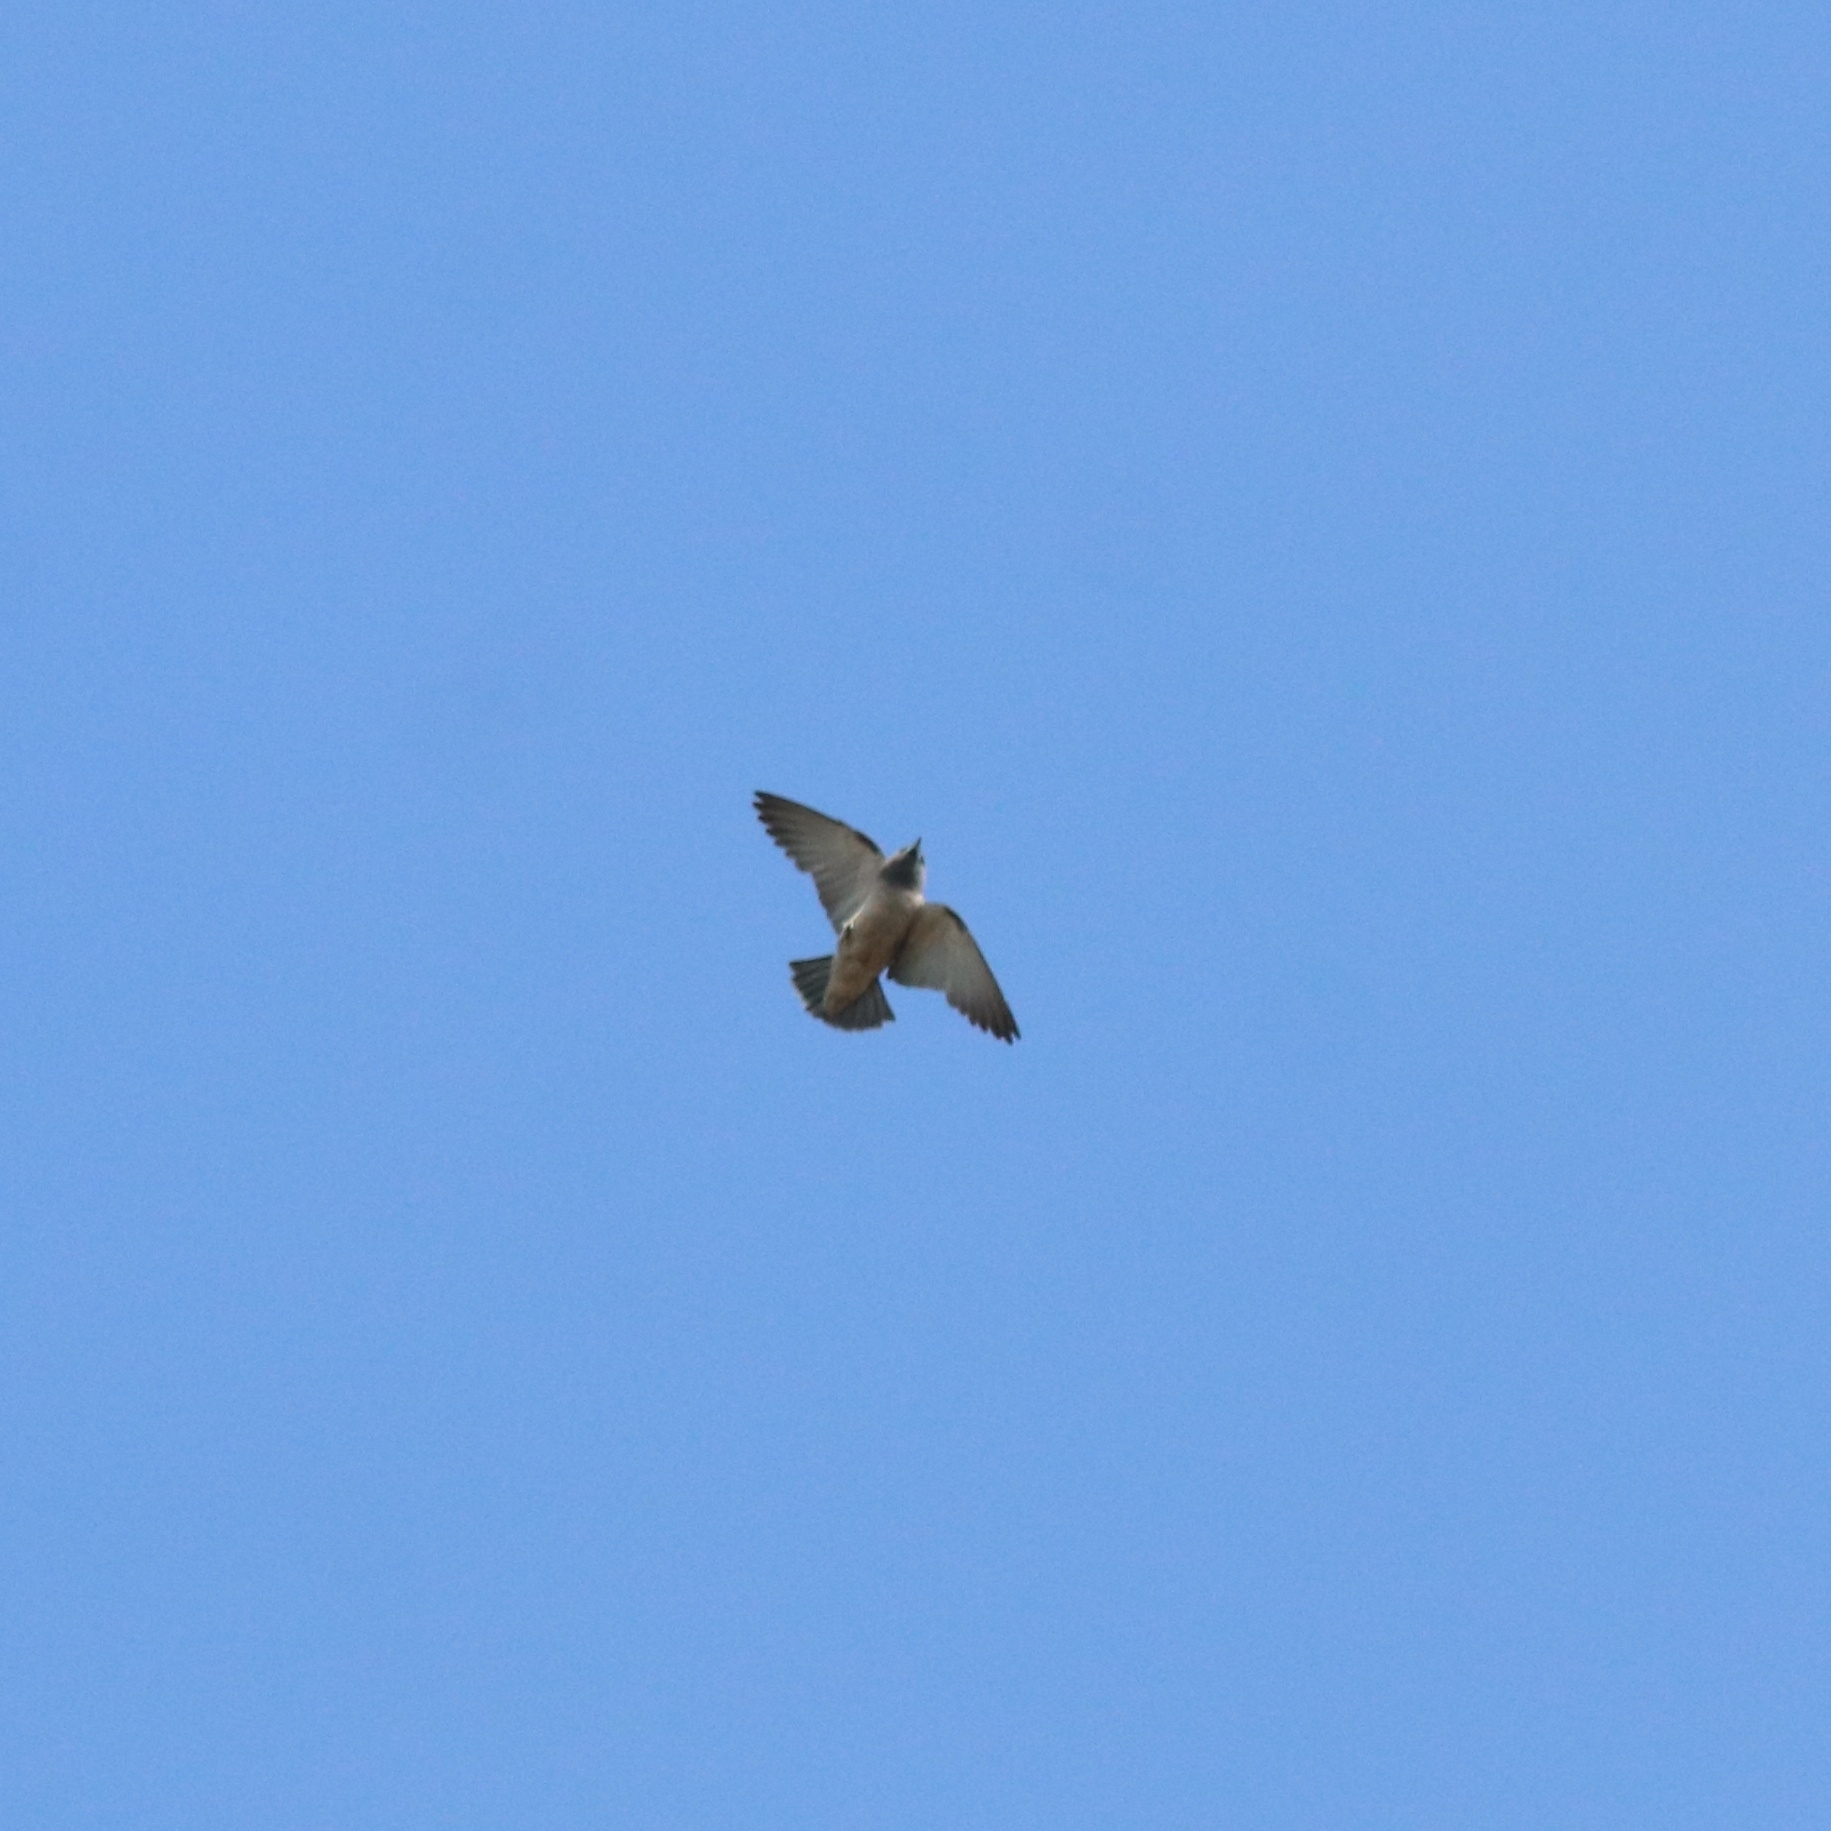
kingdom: Animalia
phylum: Chordata
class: Aves
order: Passeriformes
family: Artamidae
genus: Artamus
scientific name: Artamus fuscus
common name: Ashy woodswallow
